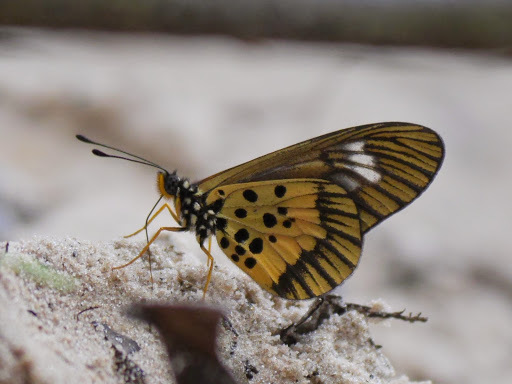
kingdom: Animalia
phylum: Arthropoda
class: Insecta
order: Lepidoptera
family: Nymphalidae
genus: Acraea
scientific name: Acraea
